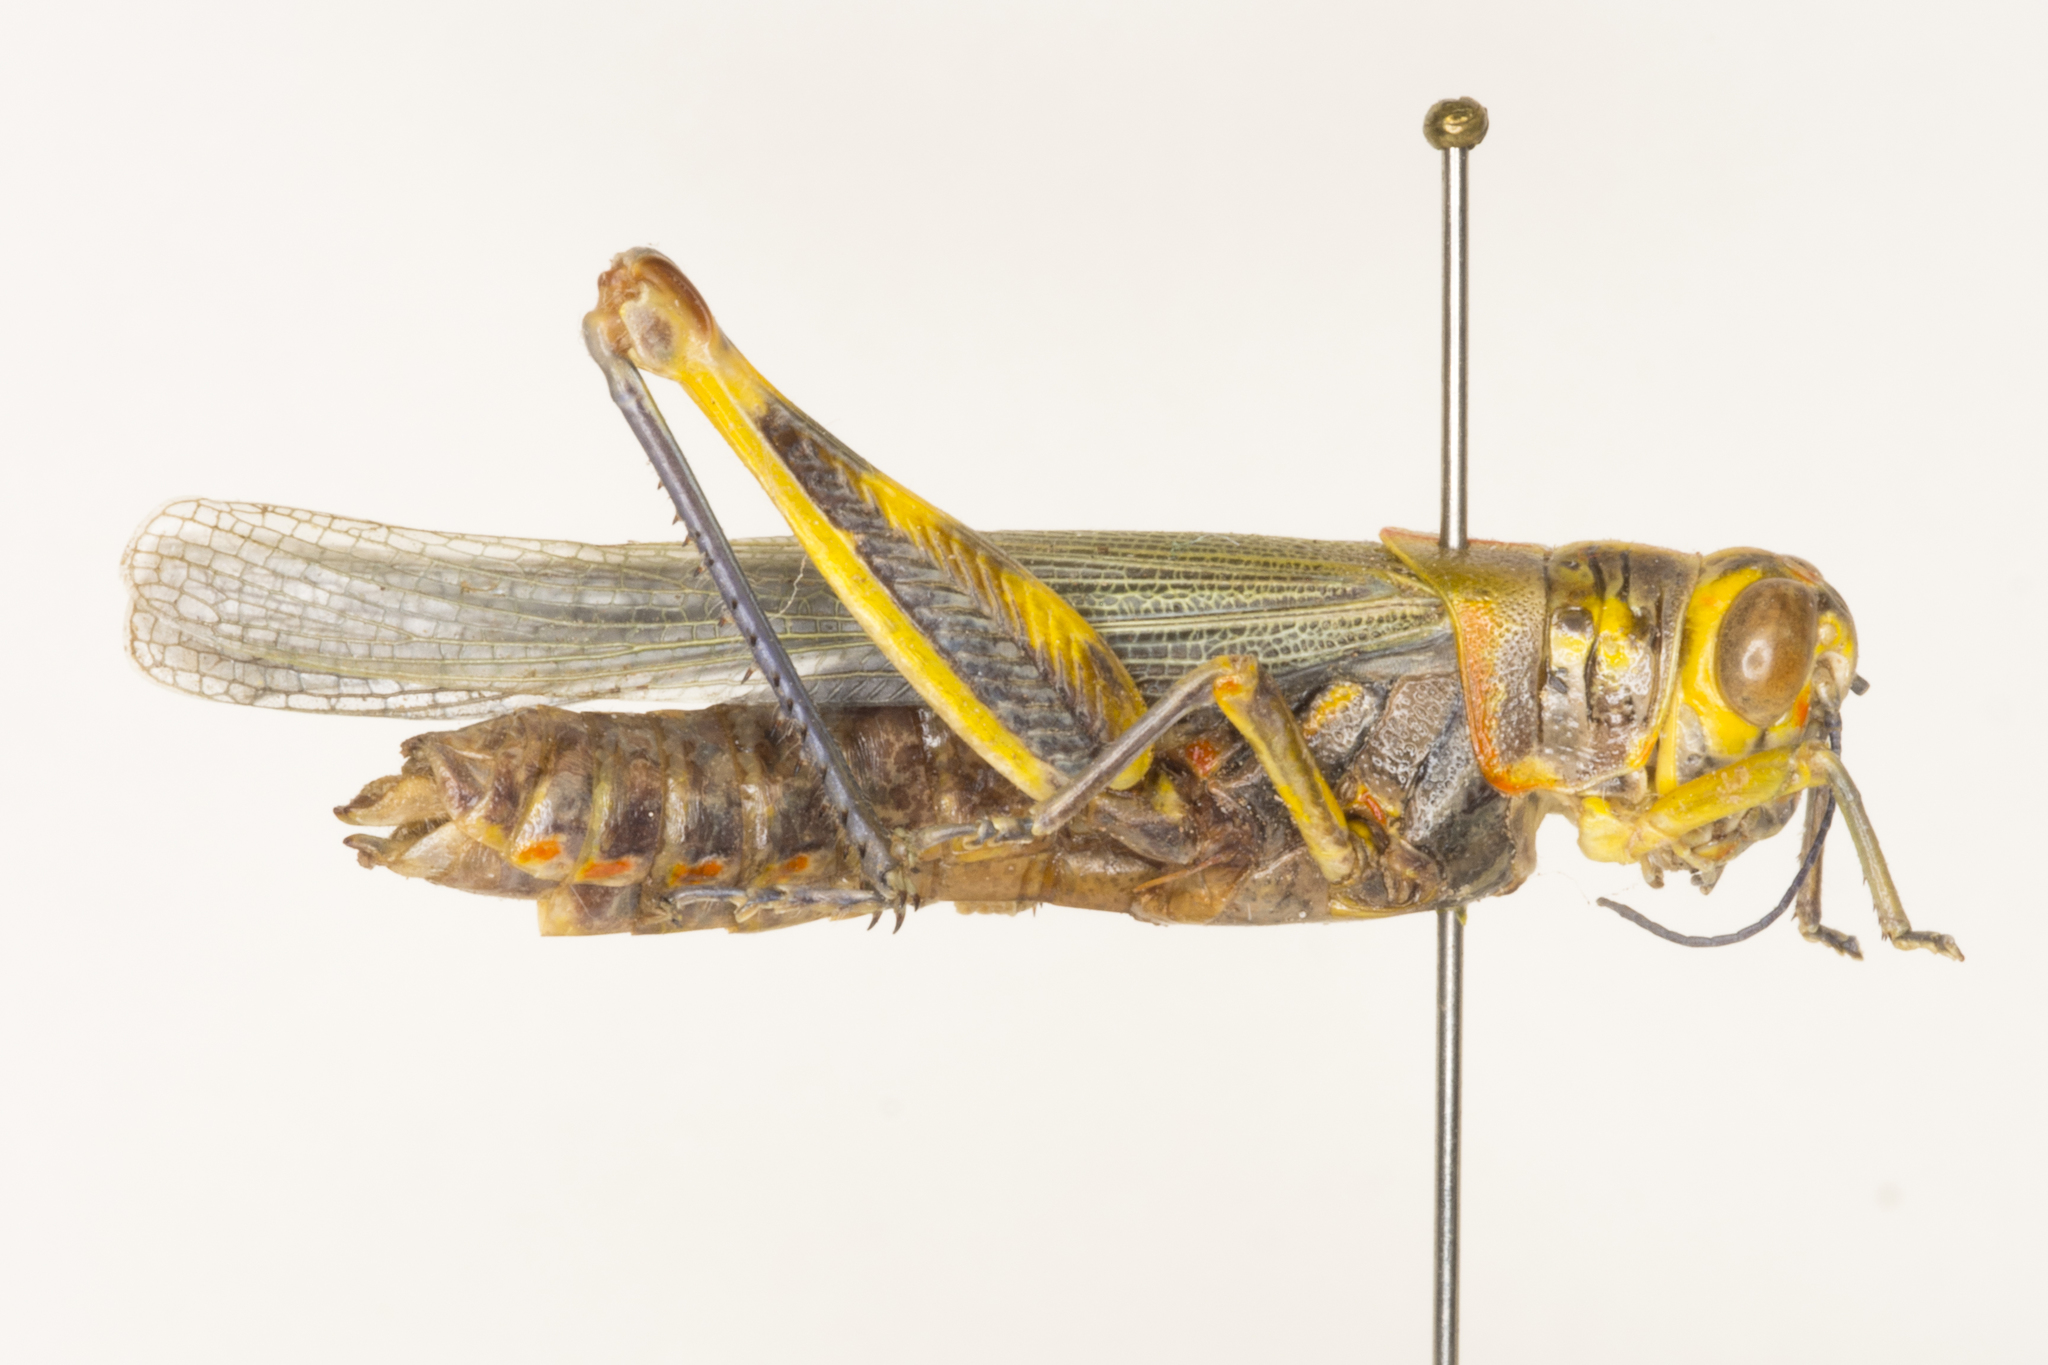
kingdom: Animalia
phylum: Arthropoda
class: Insecta
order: Orthoptera
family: Acrididae
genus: Poecilotettix
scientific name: Poecilotettix sanguineus
